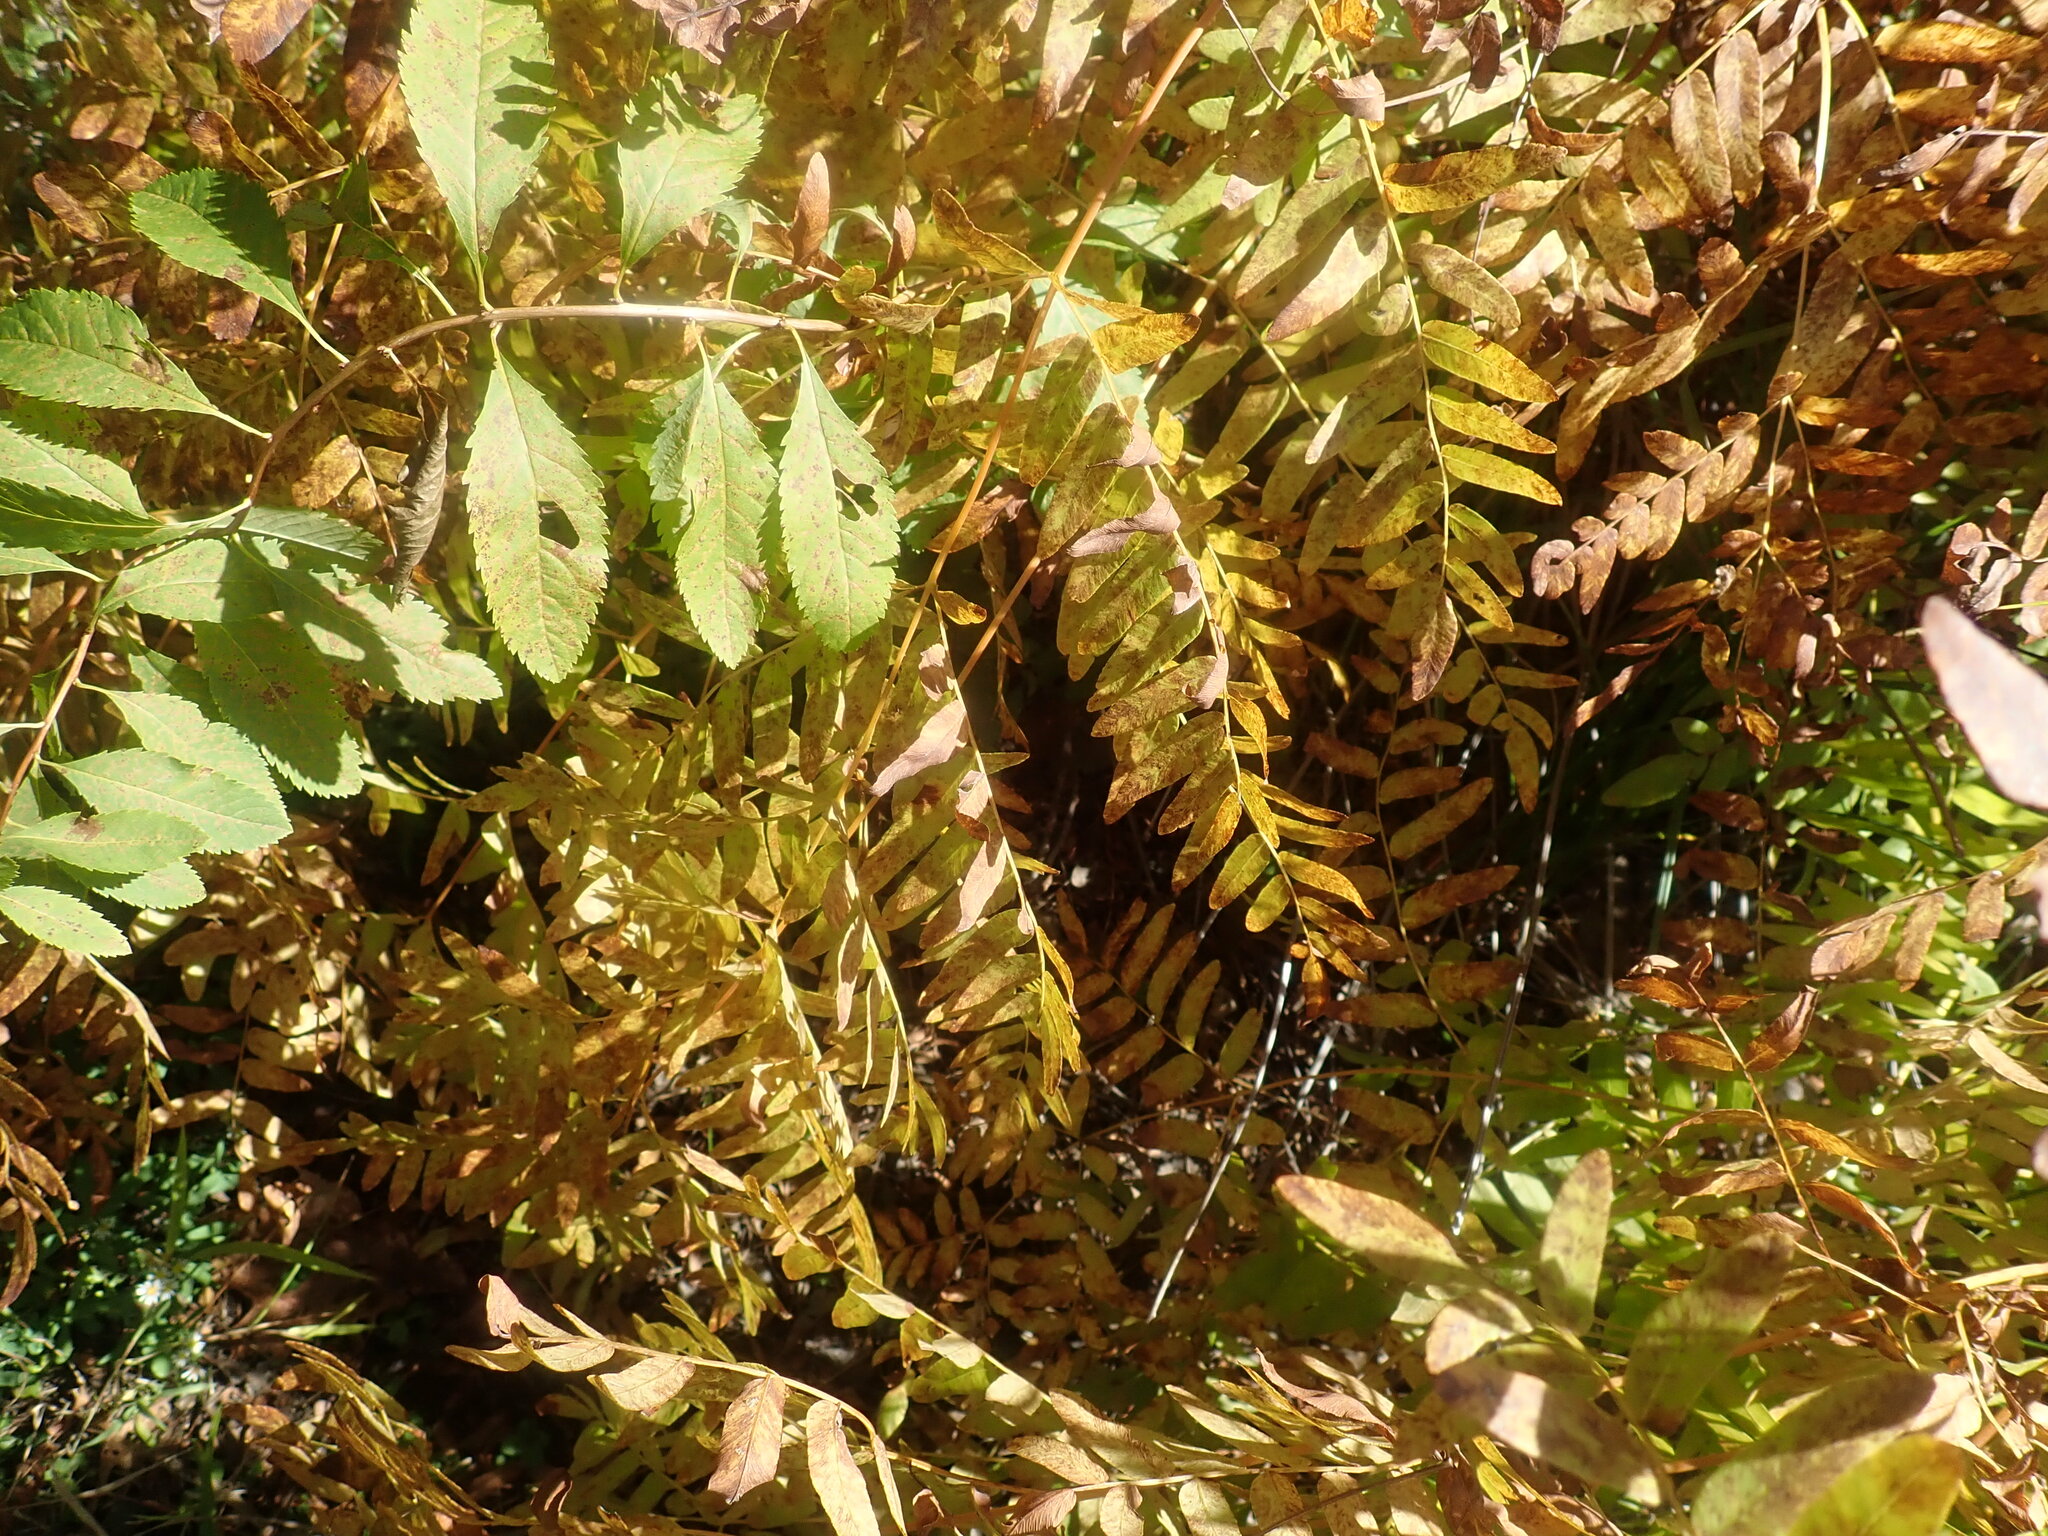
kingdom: Plantae
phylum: Tracheophyta
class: Polypodiopsida
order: Osmundales
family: Osmundaceae
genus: Osmunda
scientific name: Osmunda spectabilis
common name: American royal fern
